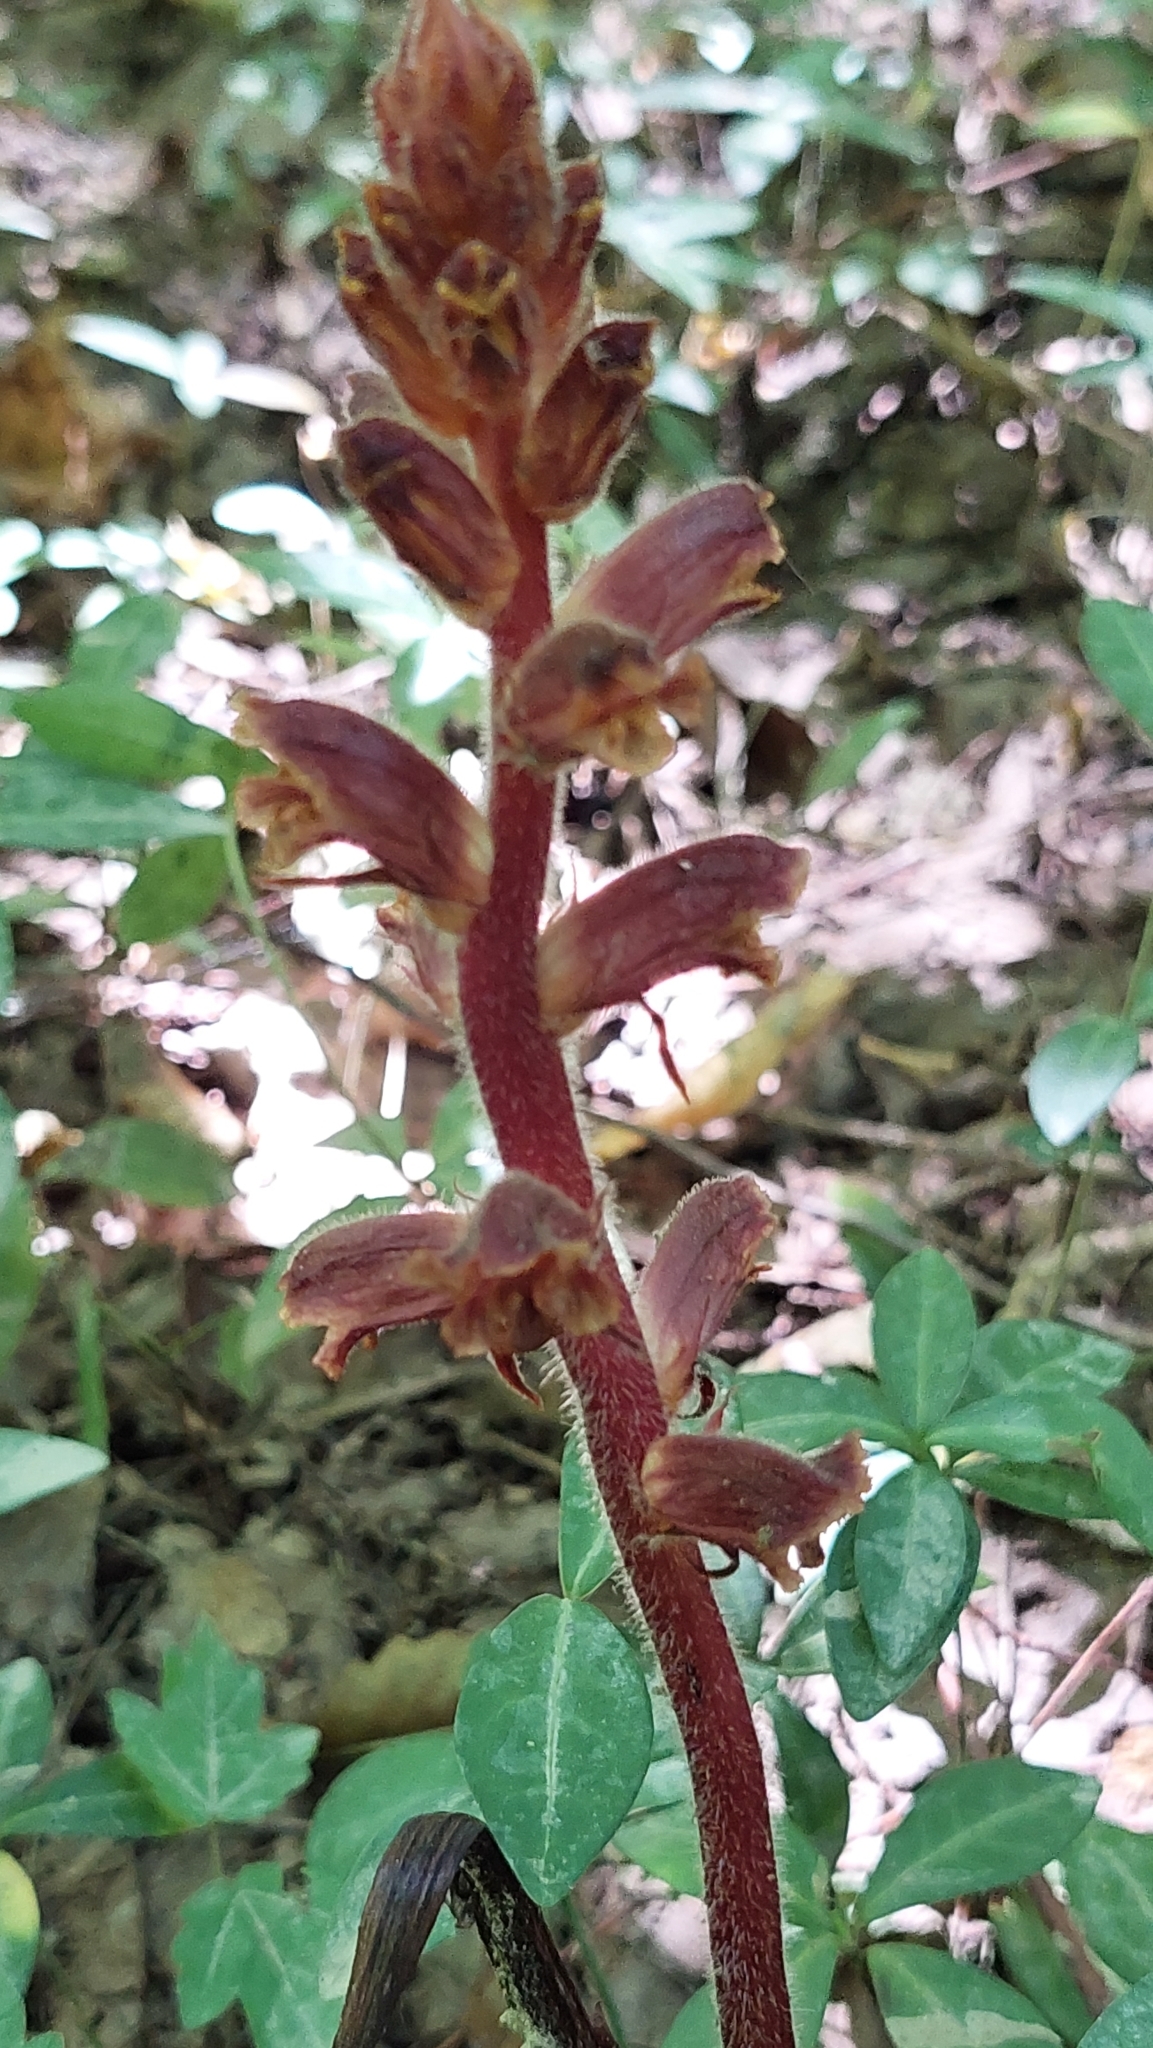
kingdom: Plantae
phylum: Tracheophyta
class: Magnoliopsida
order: Lamiales
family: Orobanchaceae
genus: Orobanche
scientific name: Orobanche laxissima
